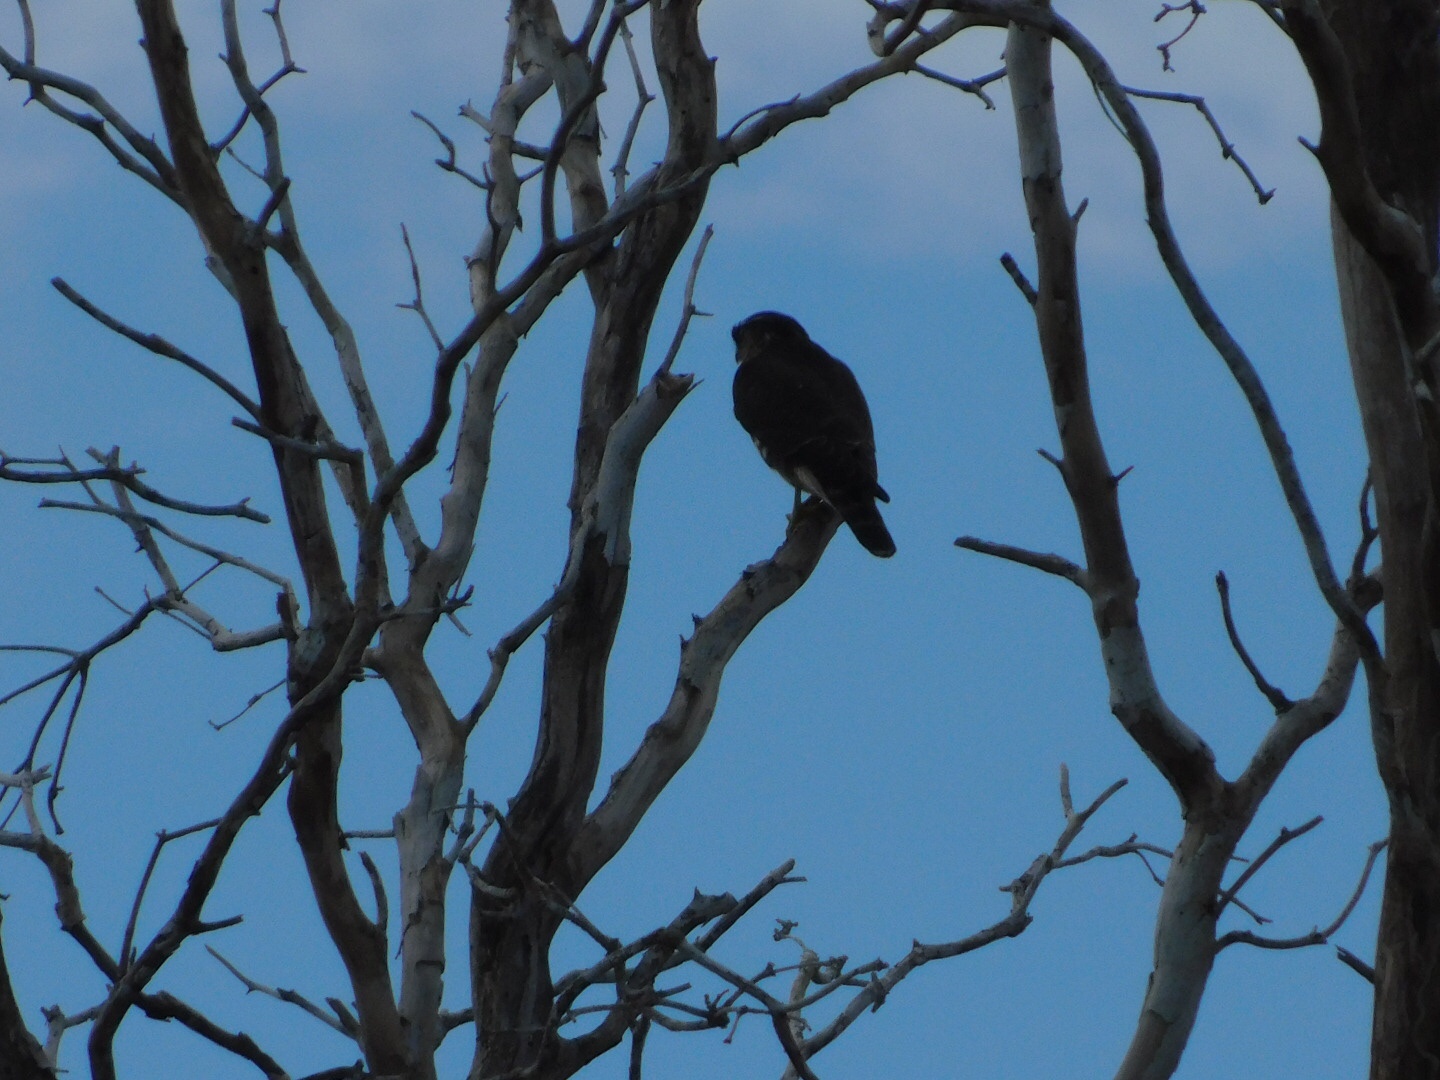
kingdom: Animalia
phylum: Chordata
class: Aves
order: Falconiformes
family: Falconidae
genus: Falco
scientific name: Falco columbarius
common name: Merlin
